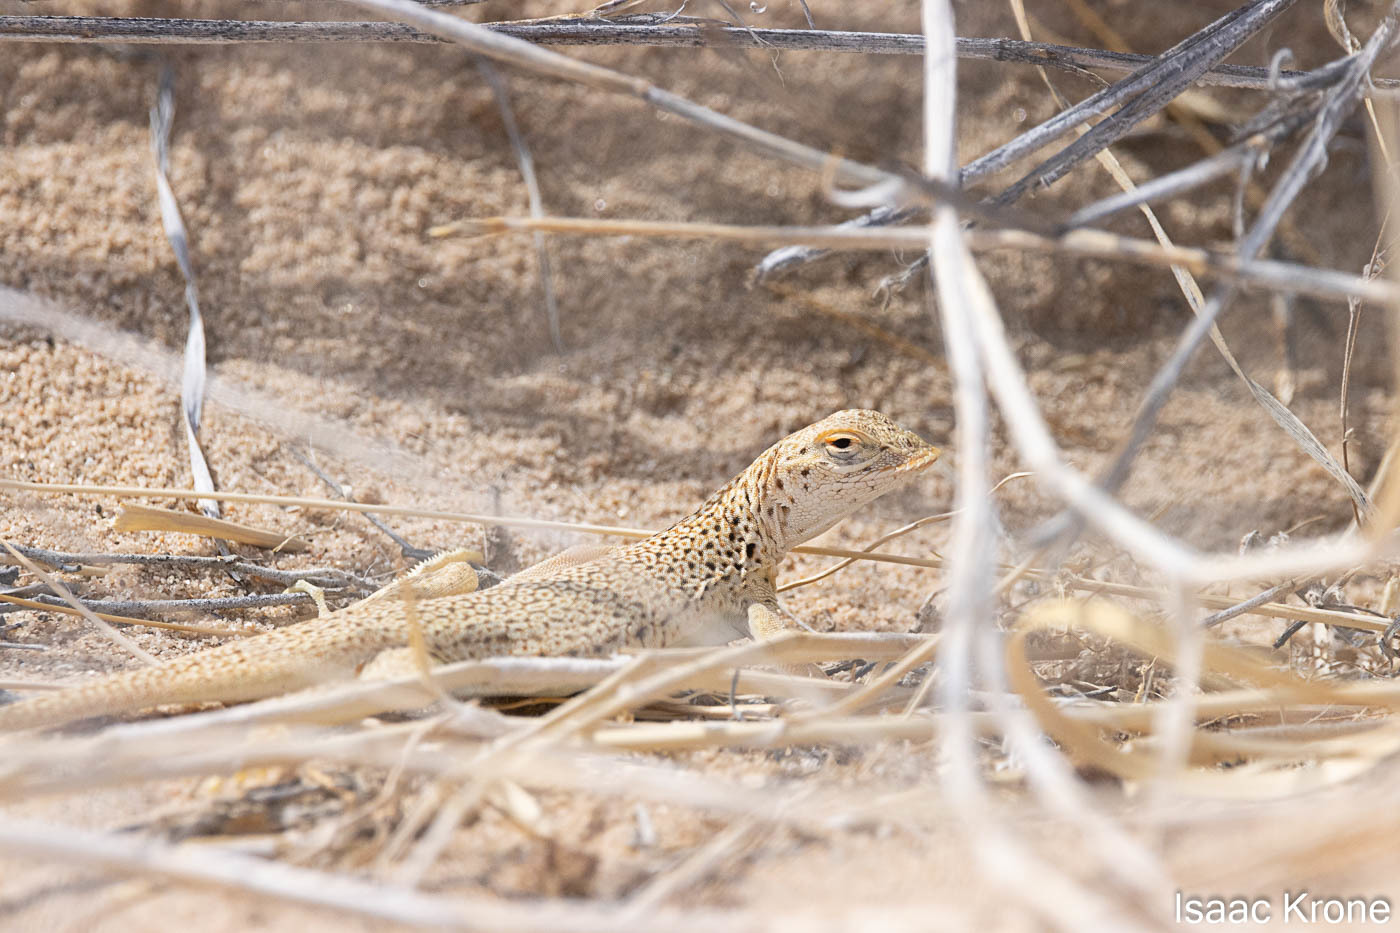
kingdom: Animalia
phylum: Chordata
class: Squamata
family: Phrynosomatidae
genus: Uma
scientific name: Uma scoparia
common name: Mojave fringe-toed lizard
